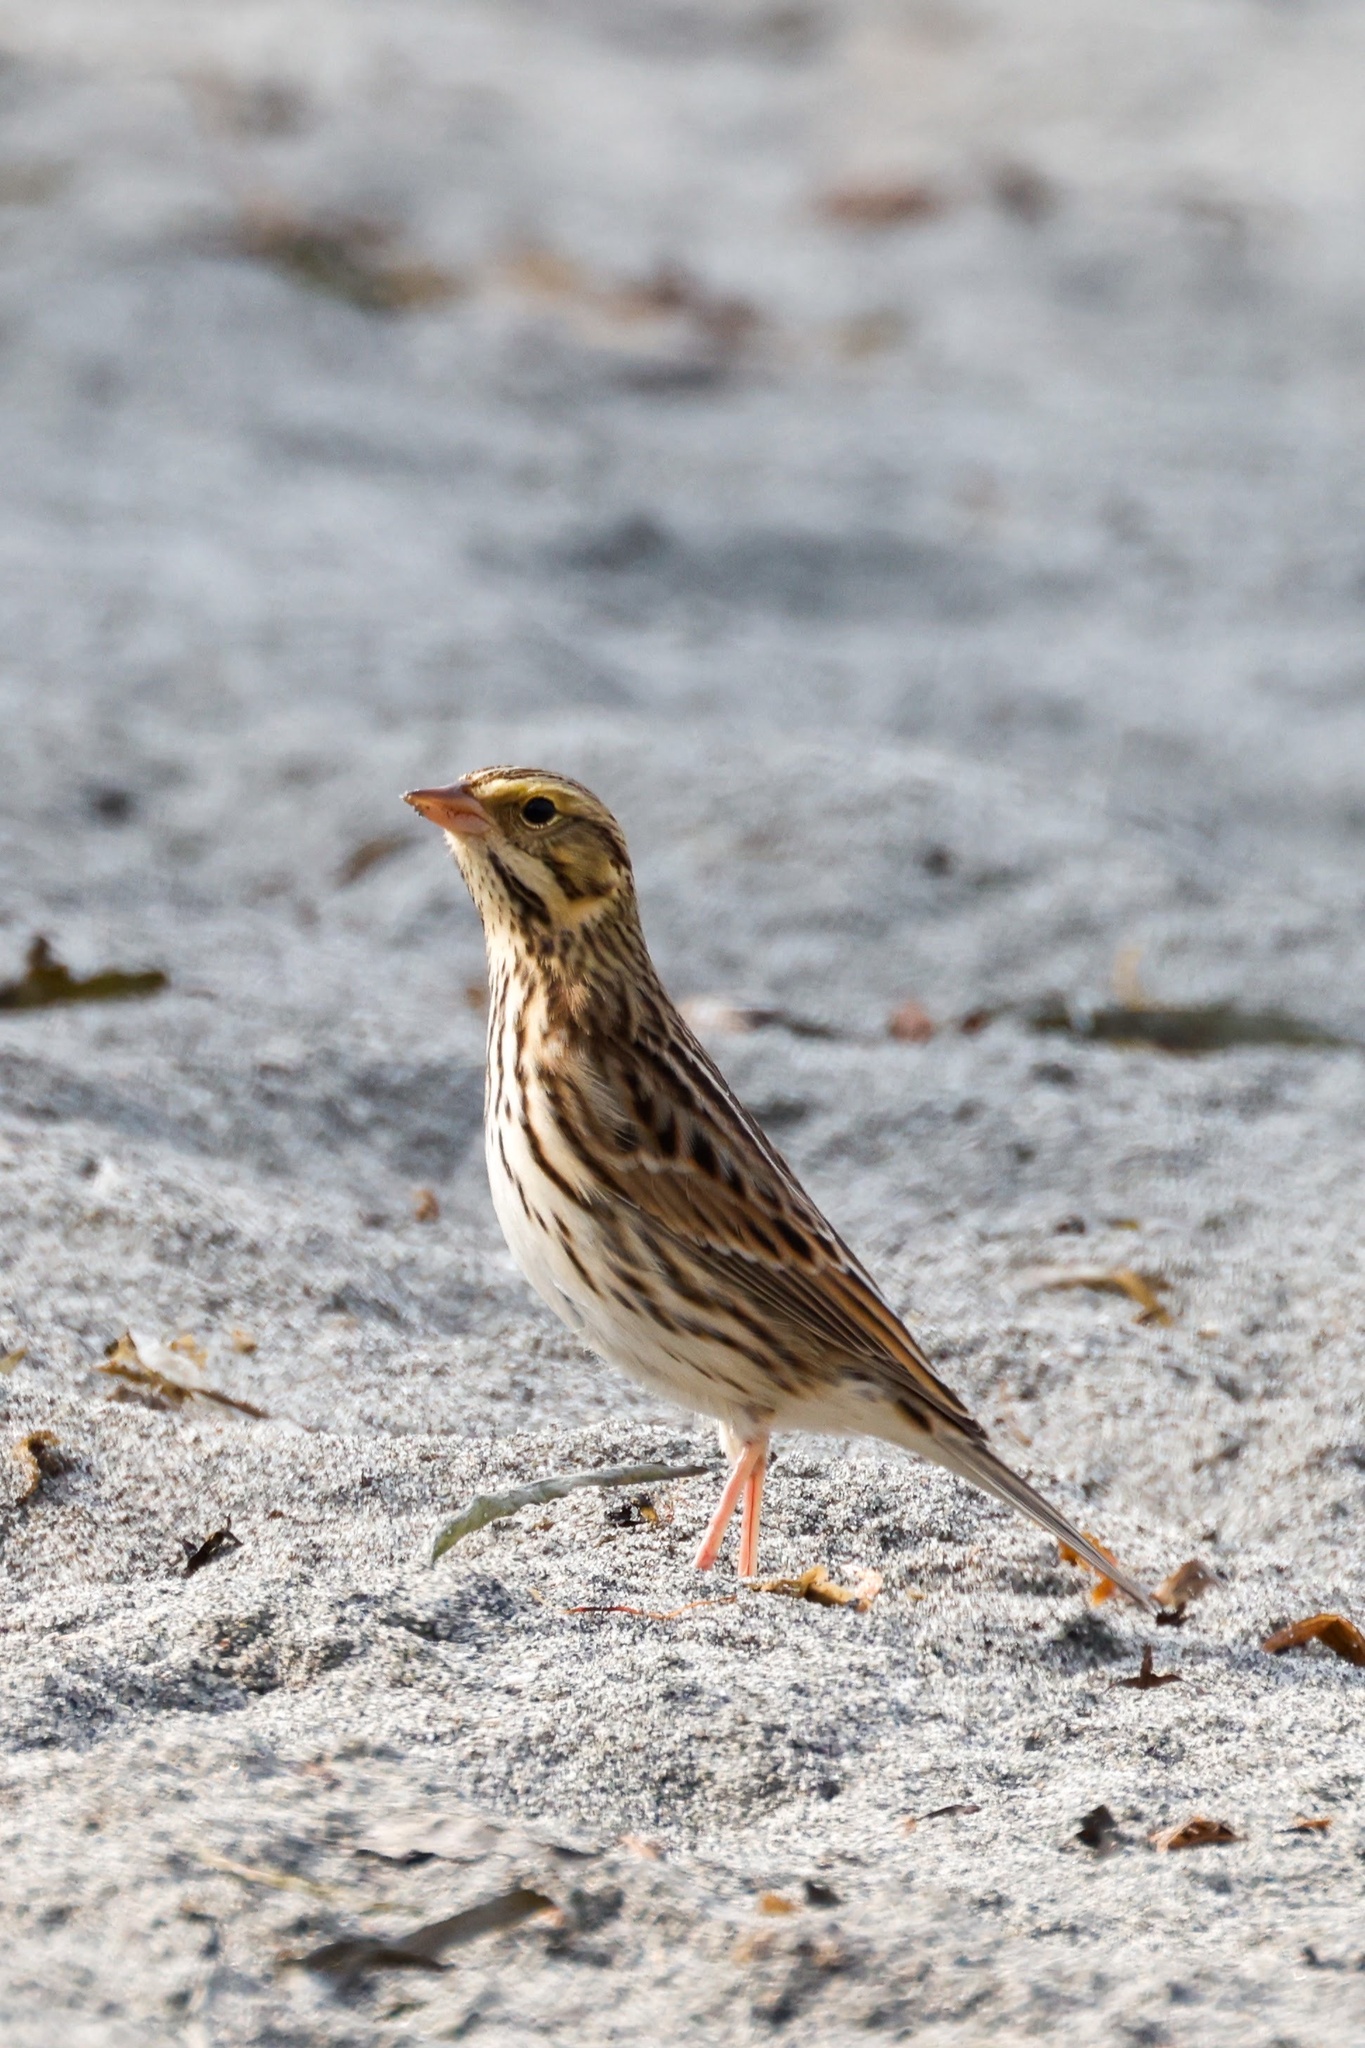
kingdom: Animalia
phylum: Chordata
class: Aves
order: Passeriformes
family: Passerellidae
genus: Passerculus
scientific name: Passerculus sandwichensis
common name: Savannah sparrow
